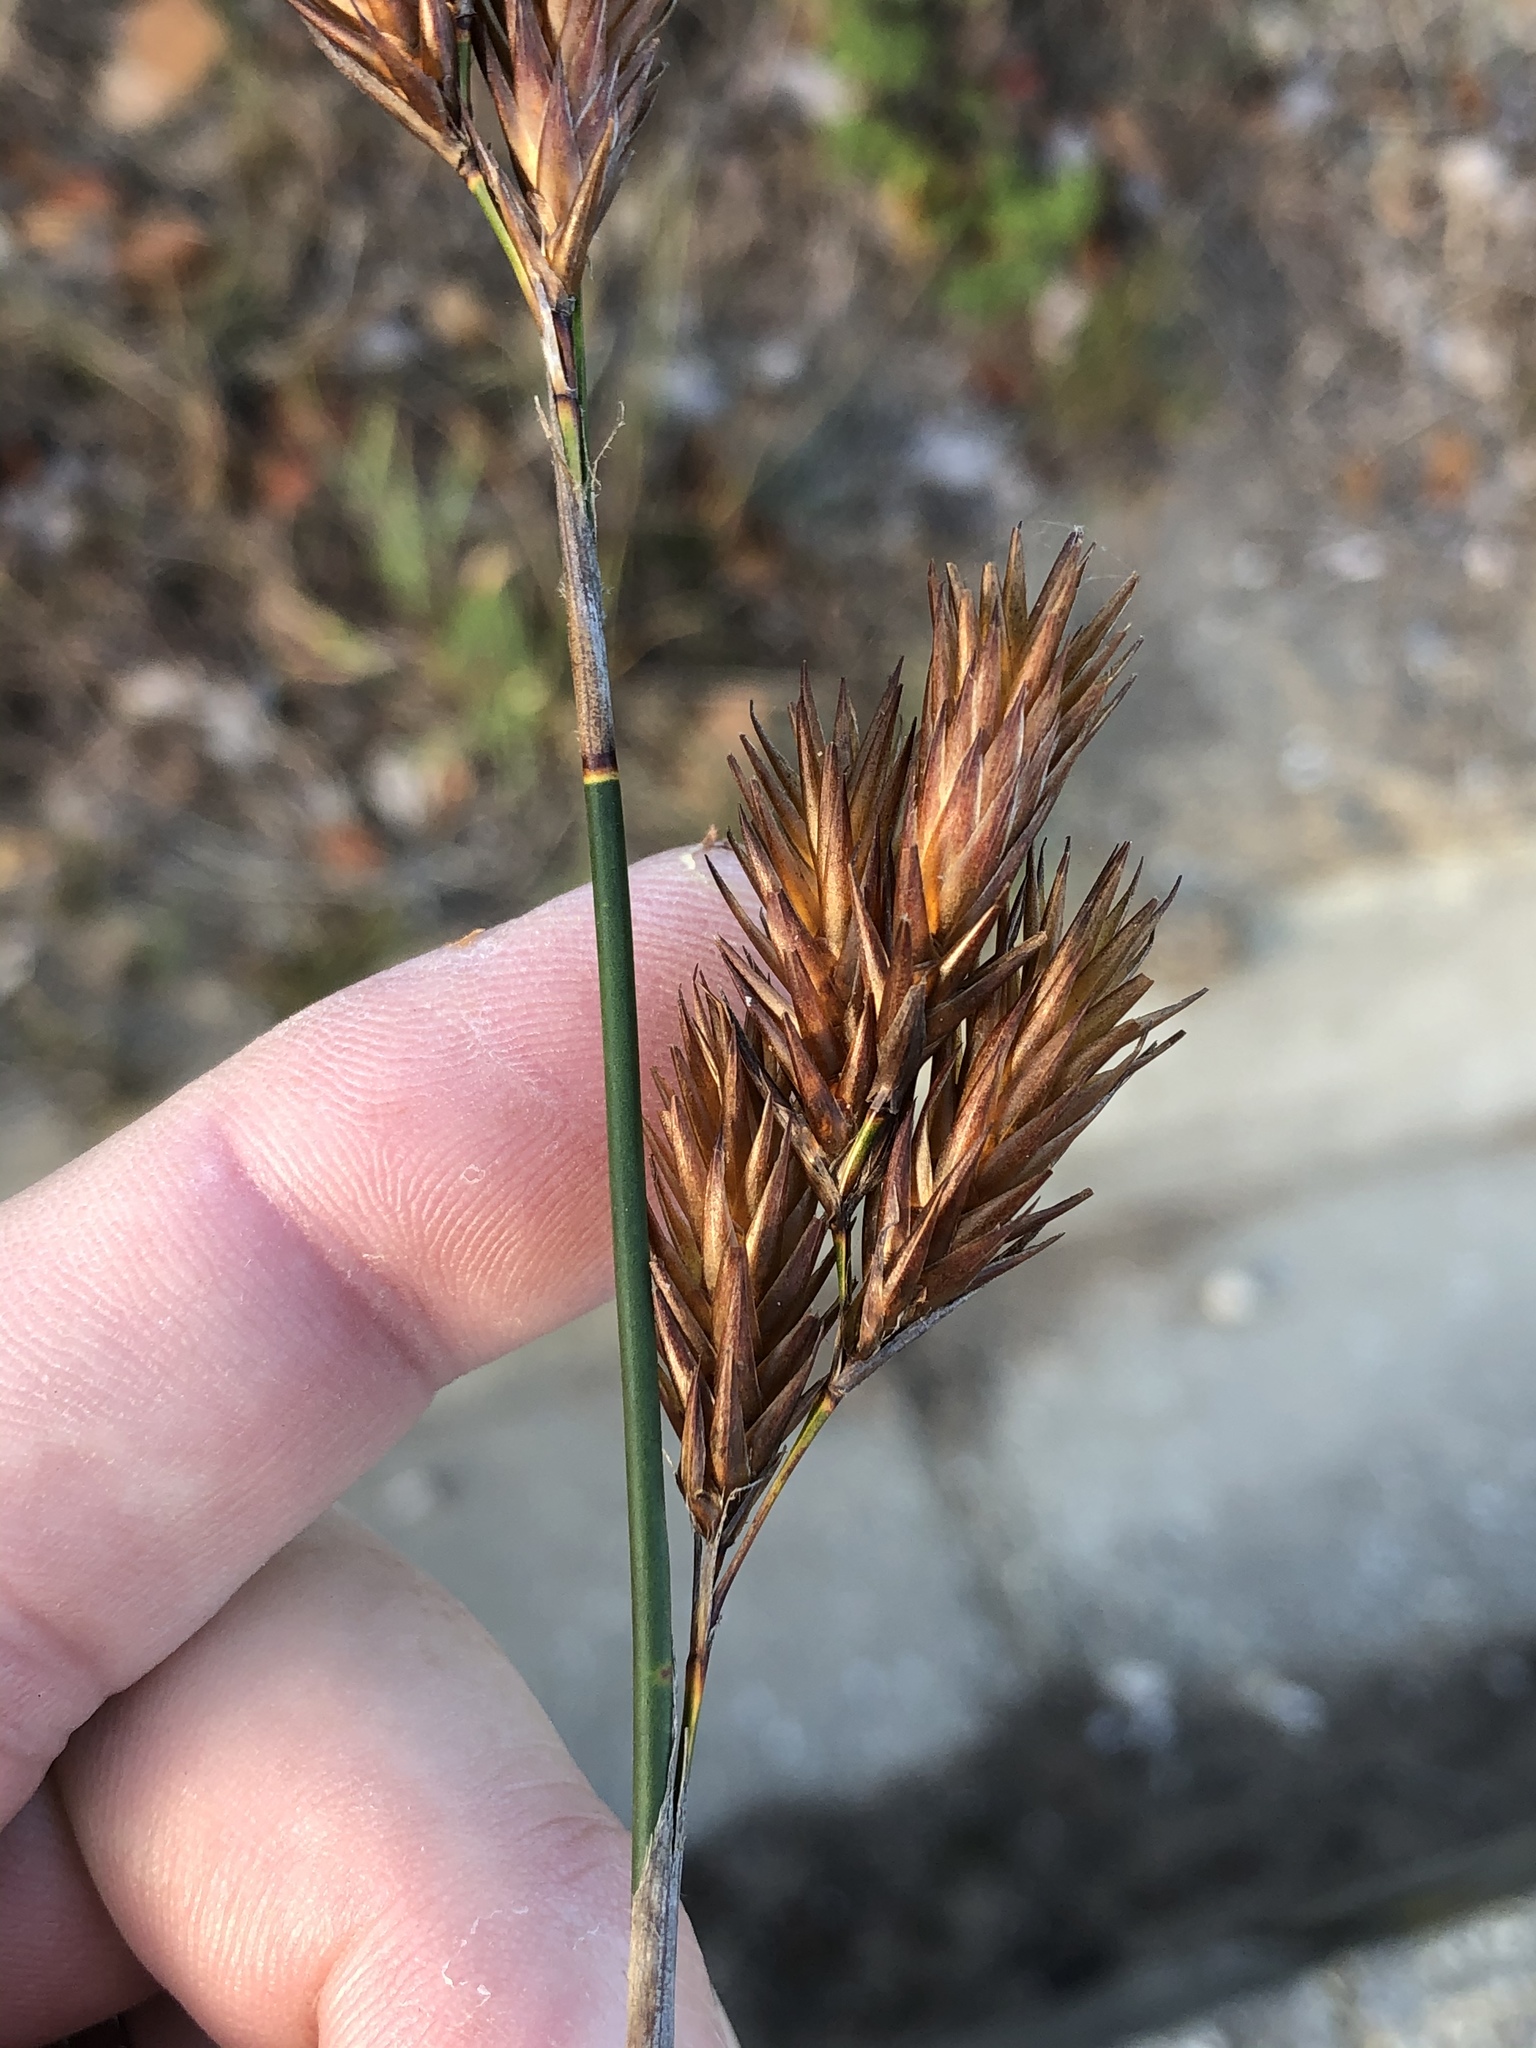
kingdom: Plantae
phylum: Tracheophyta
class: Liliopsida
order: Poales
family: Restionaceae
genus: Thamnochortus
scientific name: Thamnochortus glaber
